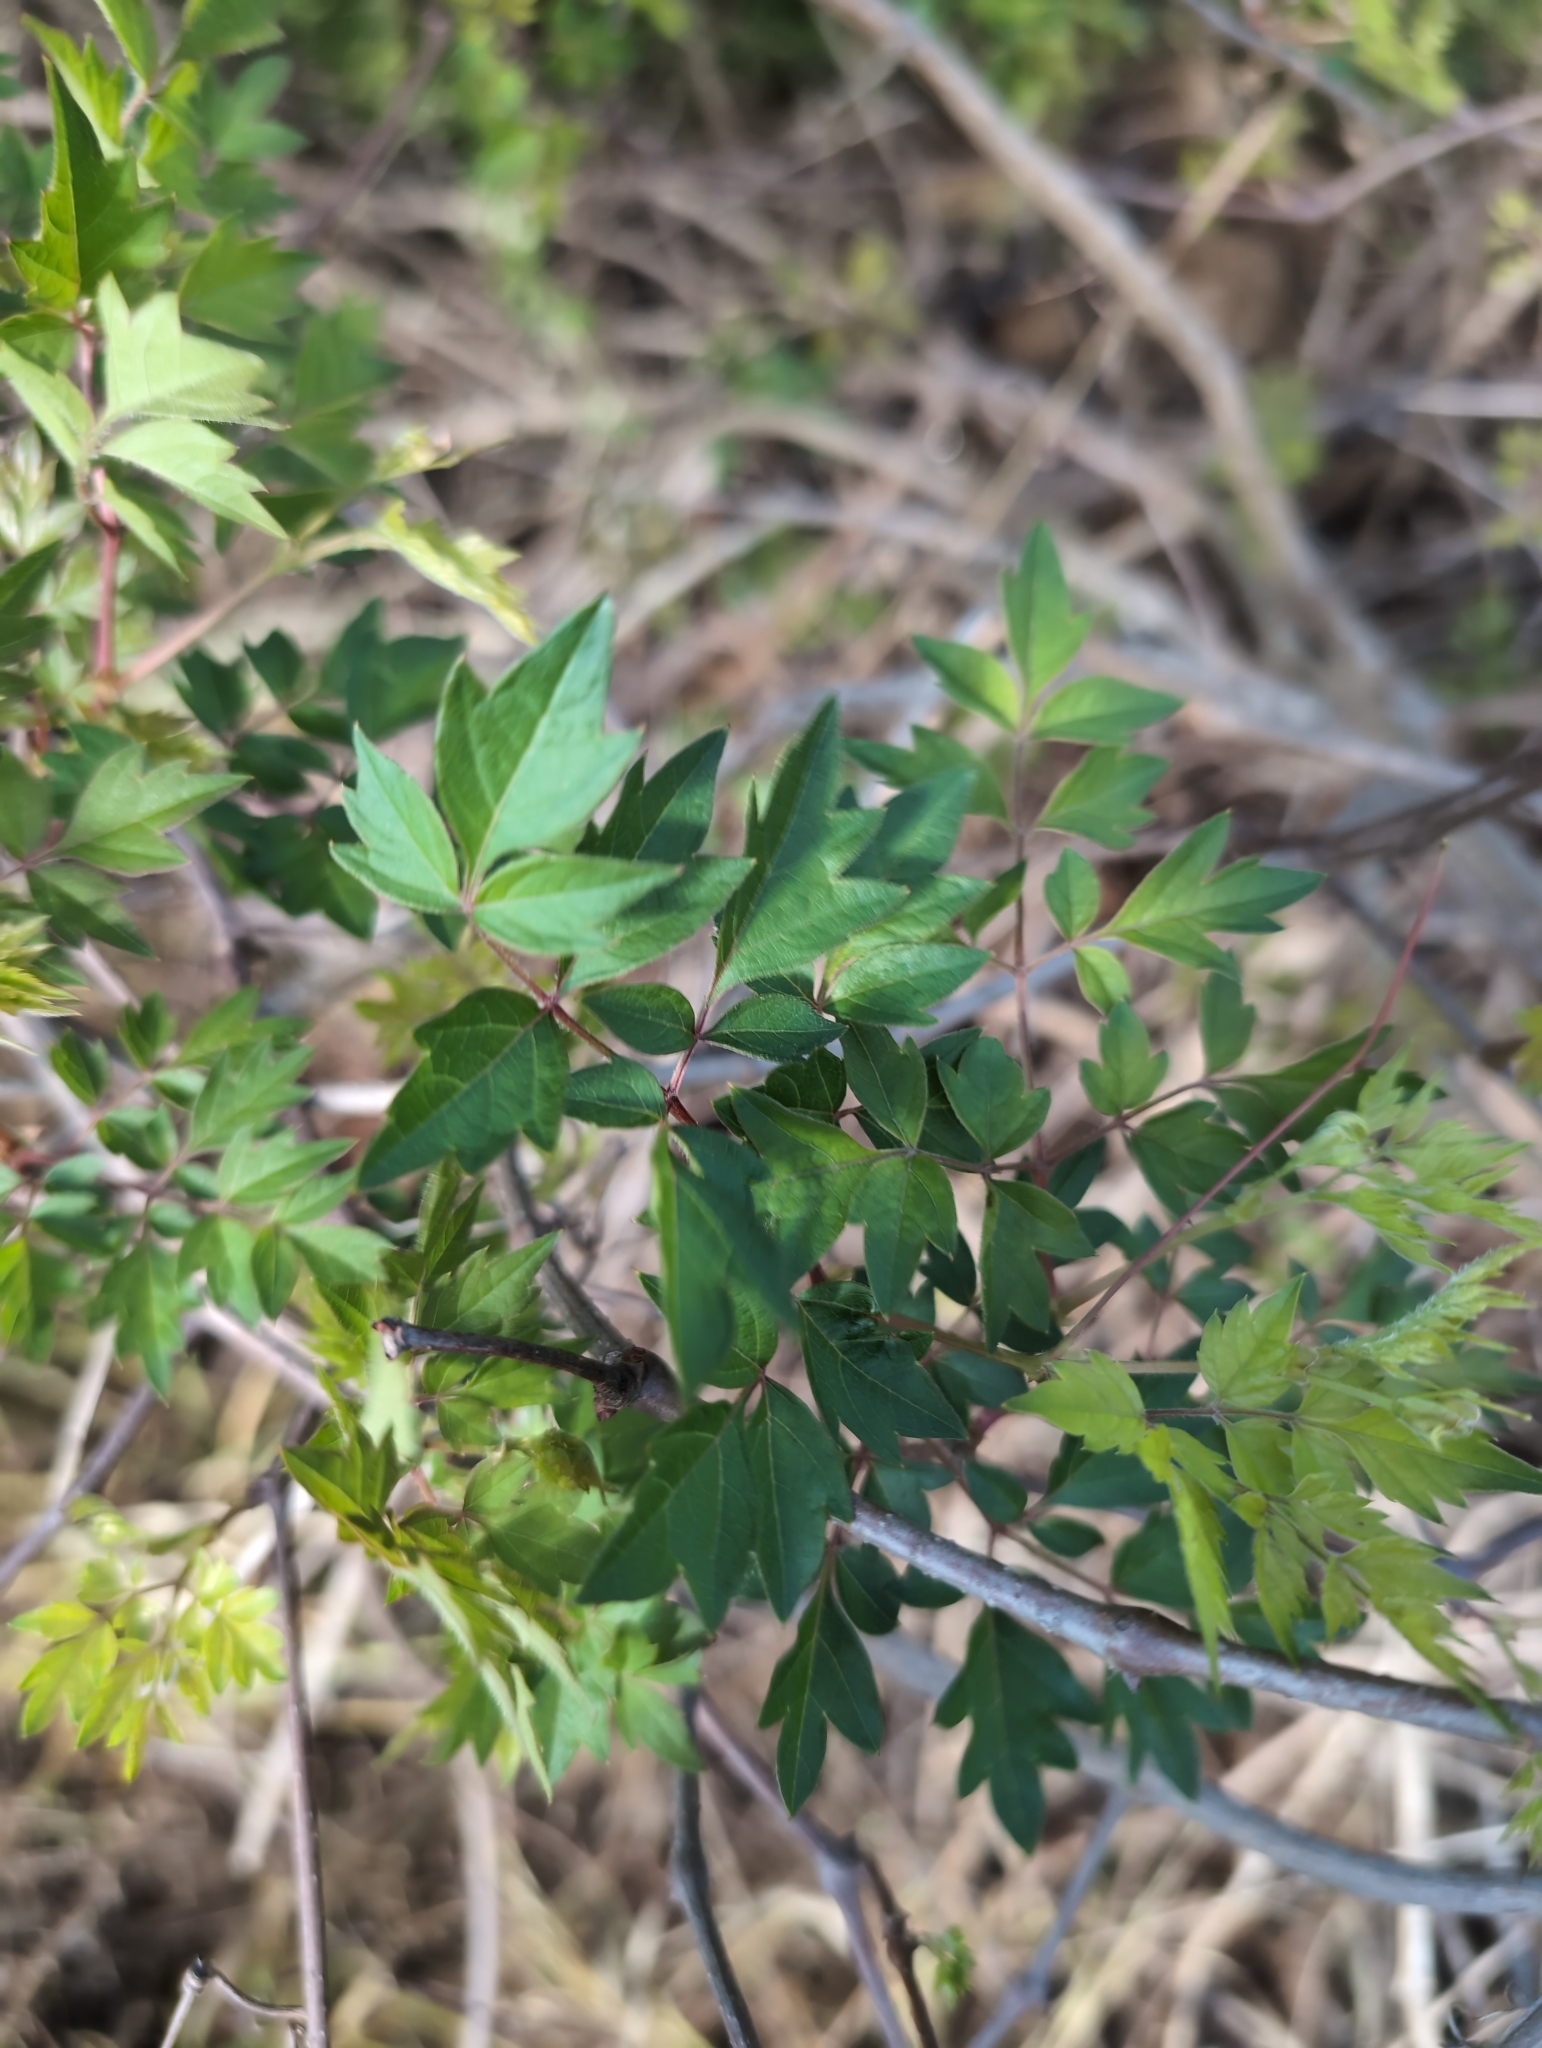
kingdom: Plantae
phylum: Tracheophyta
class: Magnoliopsida
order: Vitales
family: Vitaceae
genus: Nekemias
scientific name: Nekemias arborea
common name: Peppervine
